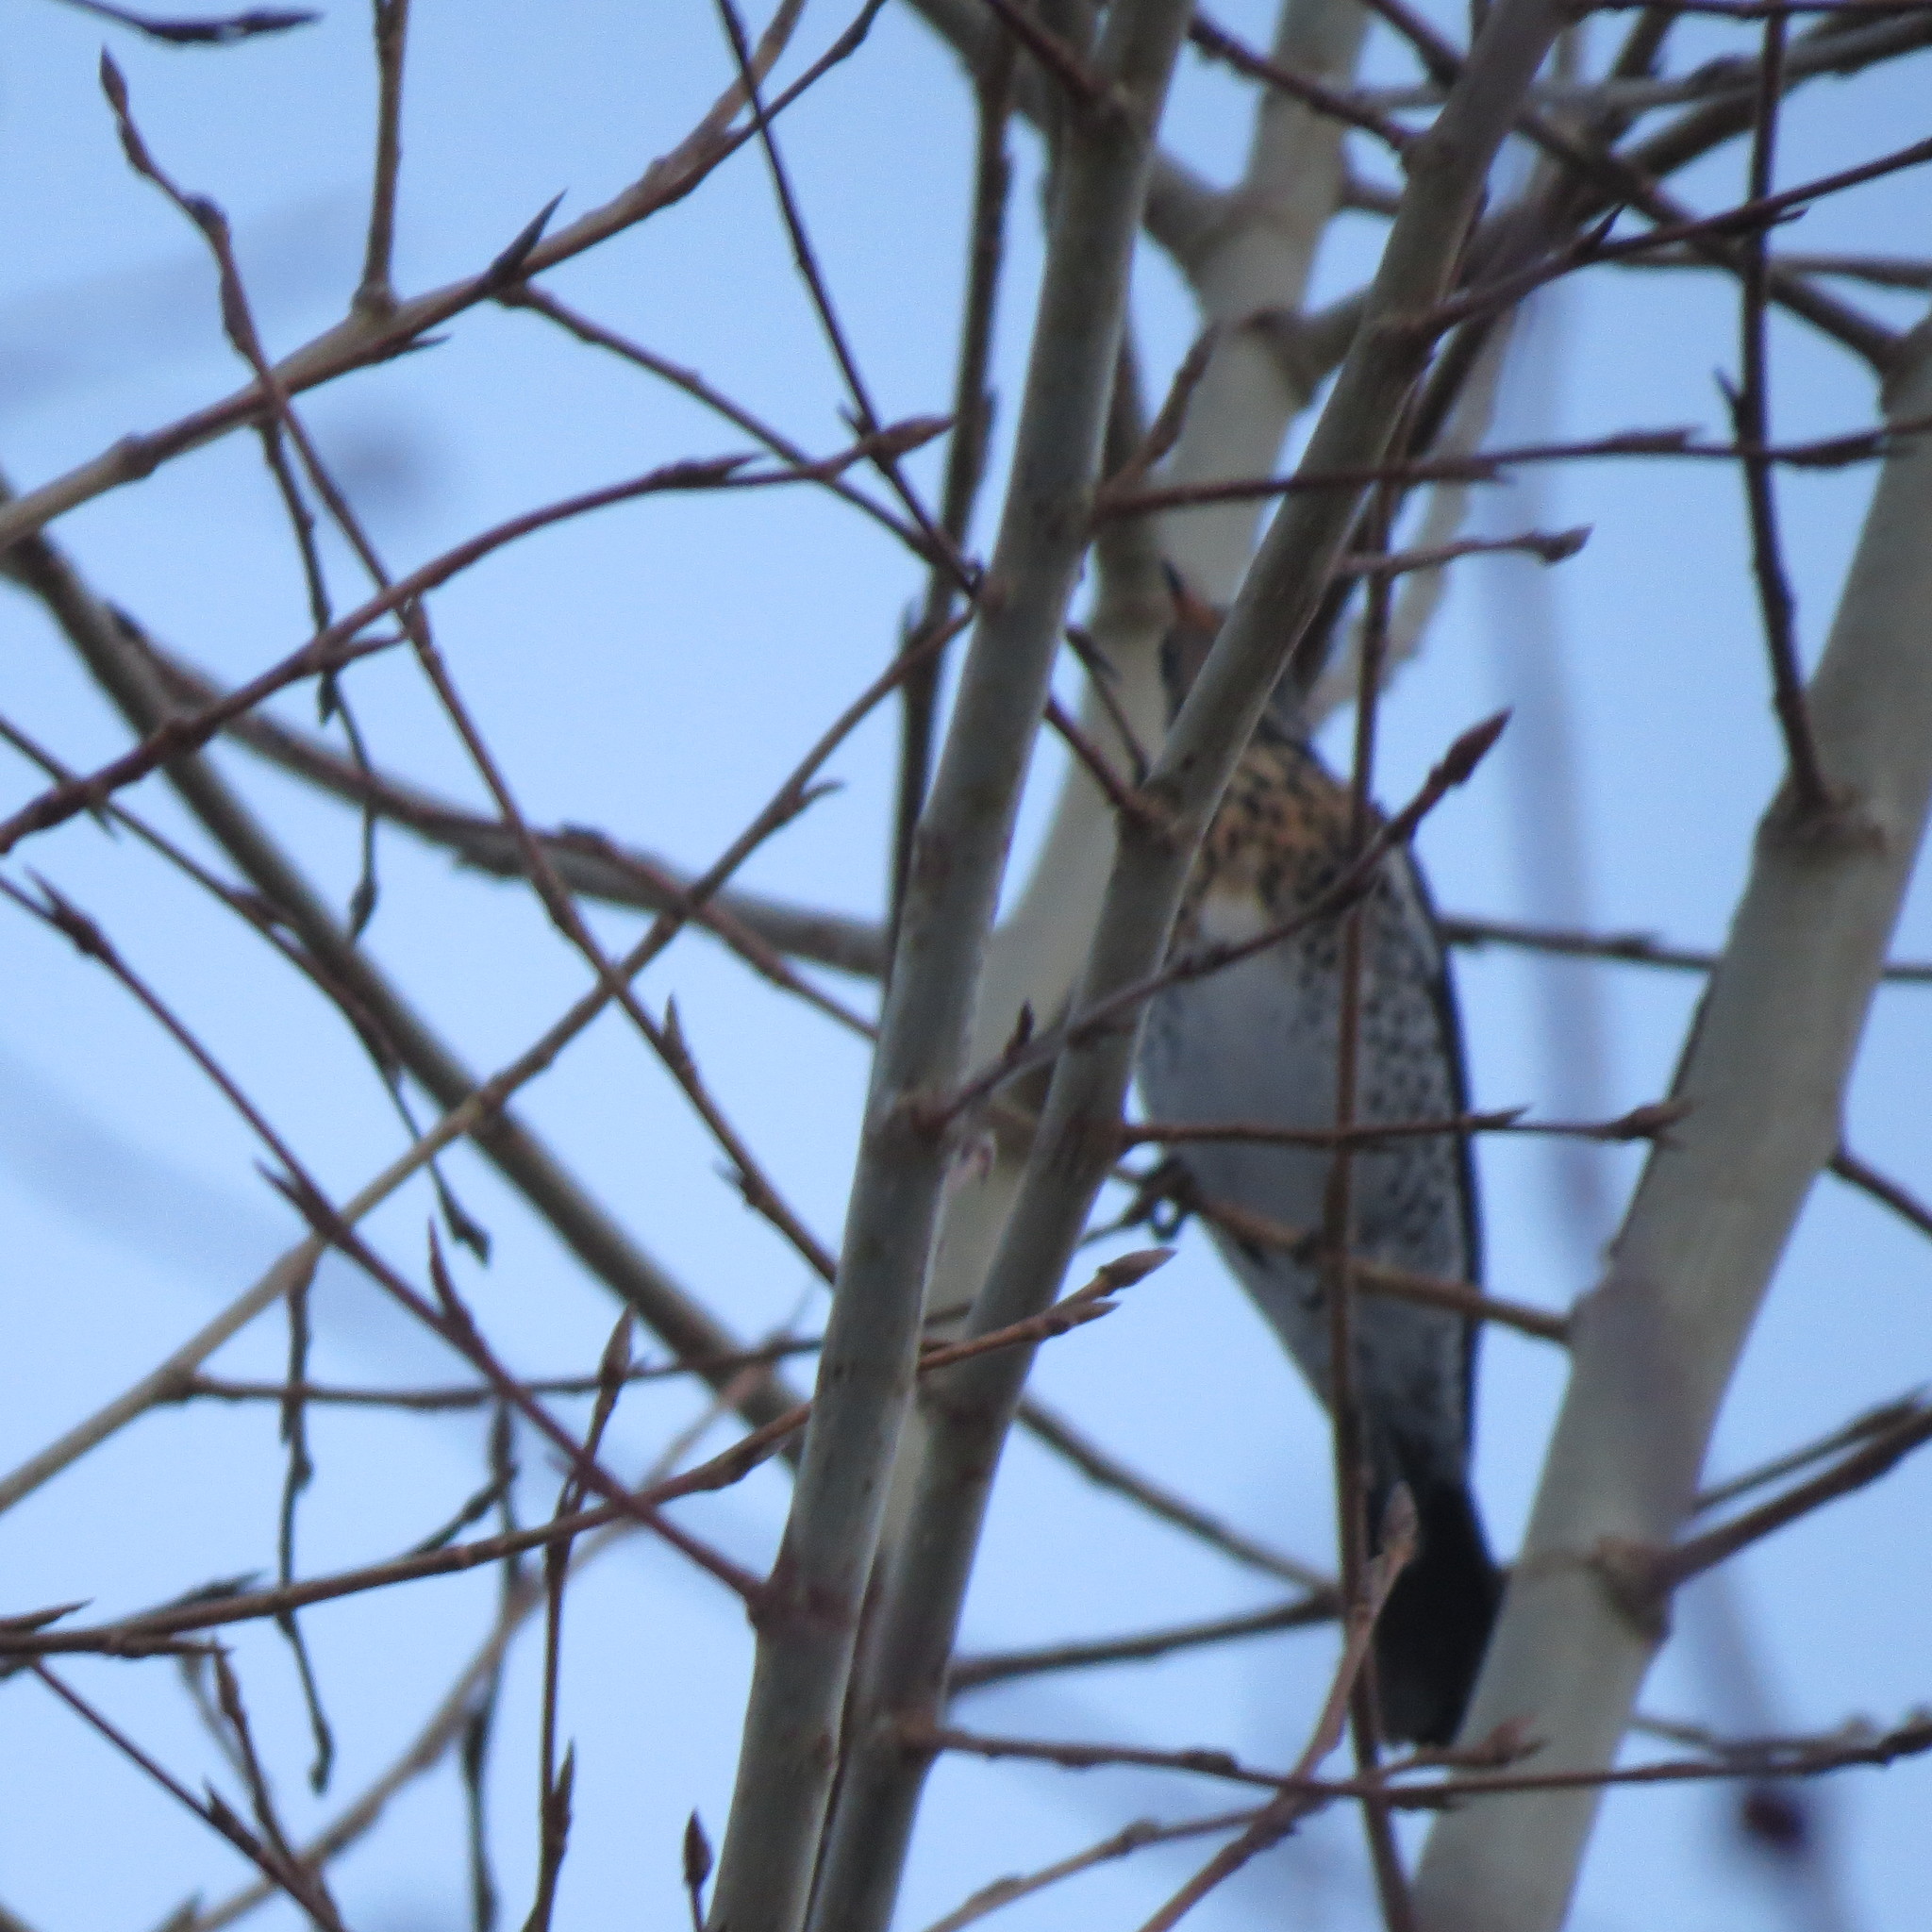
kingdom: Animalia
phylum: Chordata
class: Aves
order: Passeriformes
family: Turdidae
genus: Turdus
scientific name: Turdus pilaris
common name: Fieldfare
